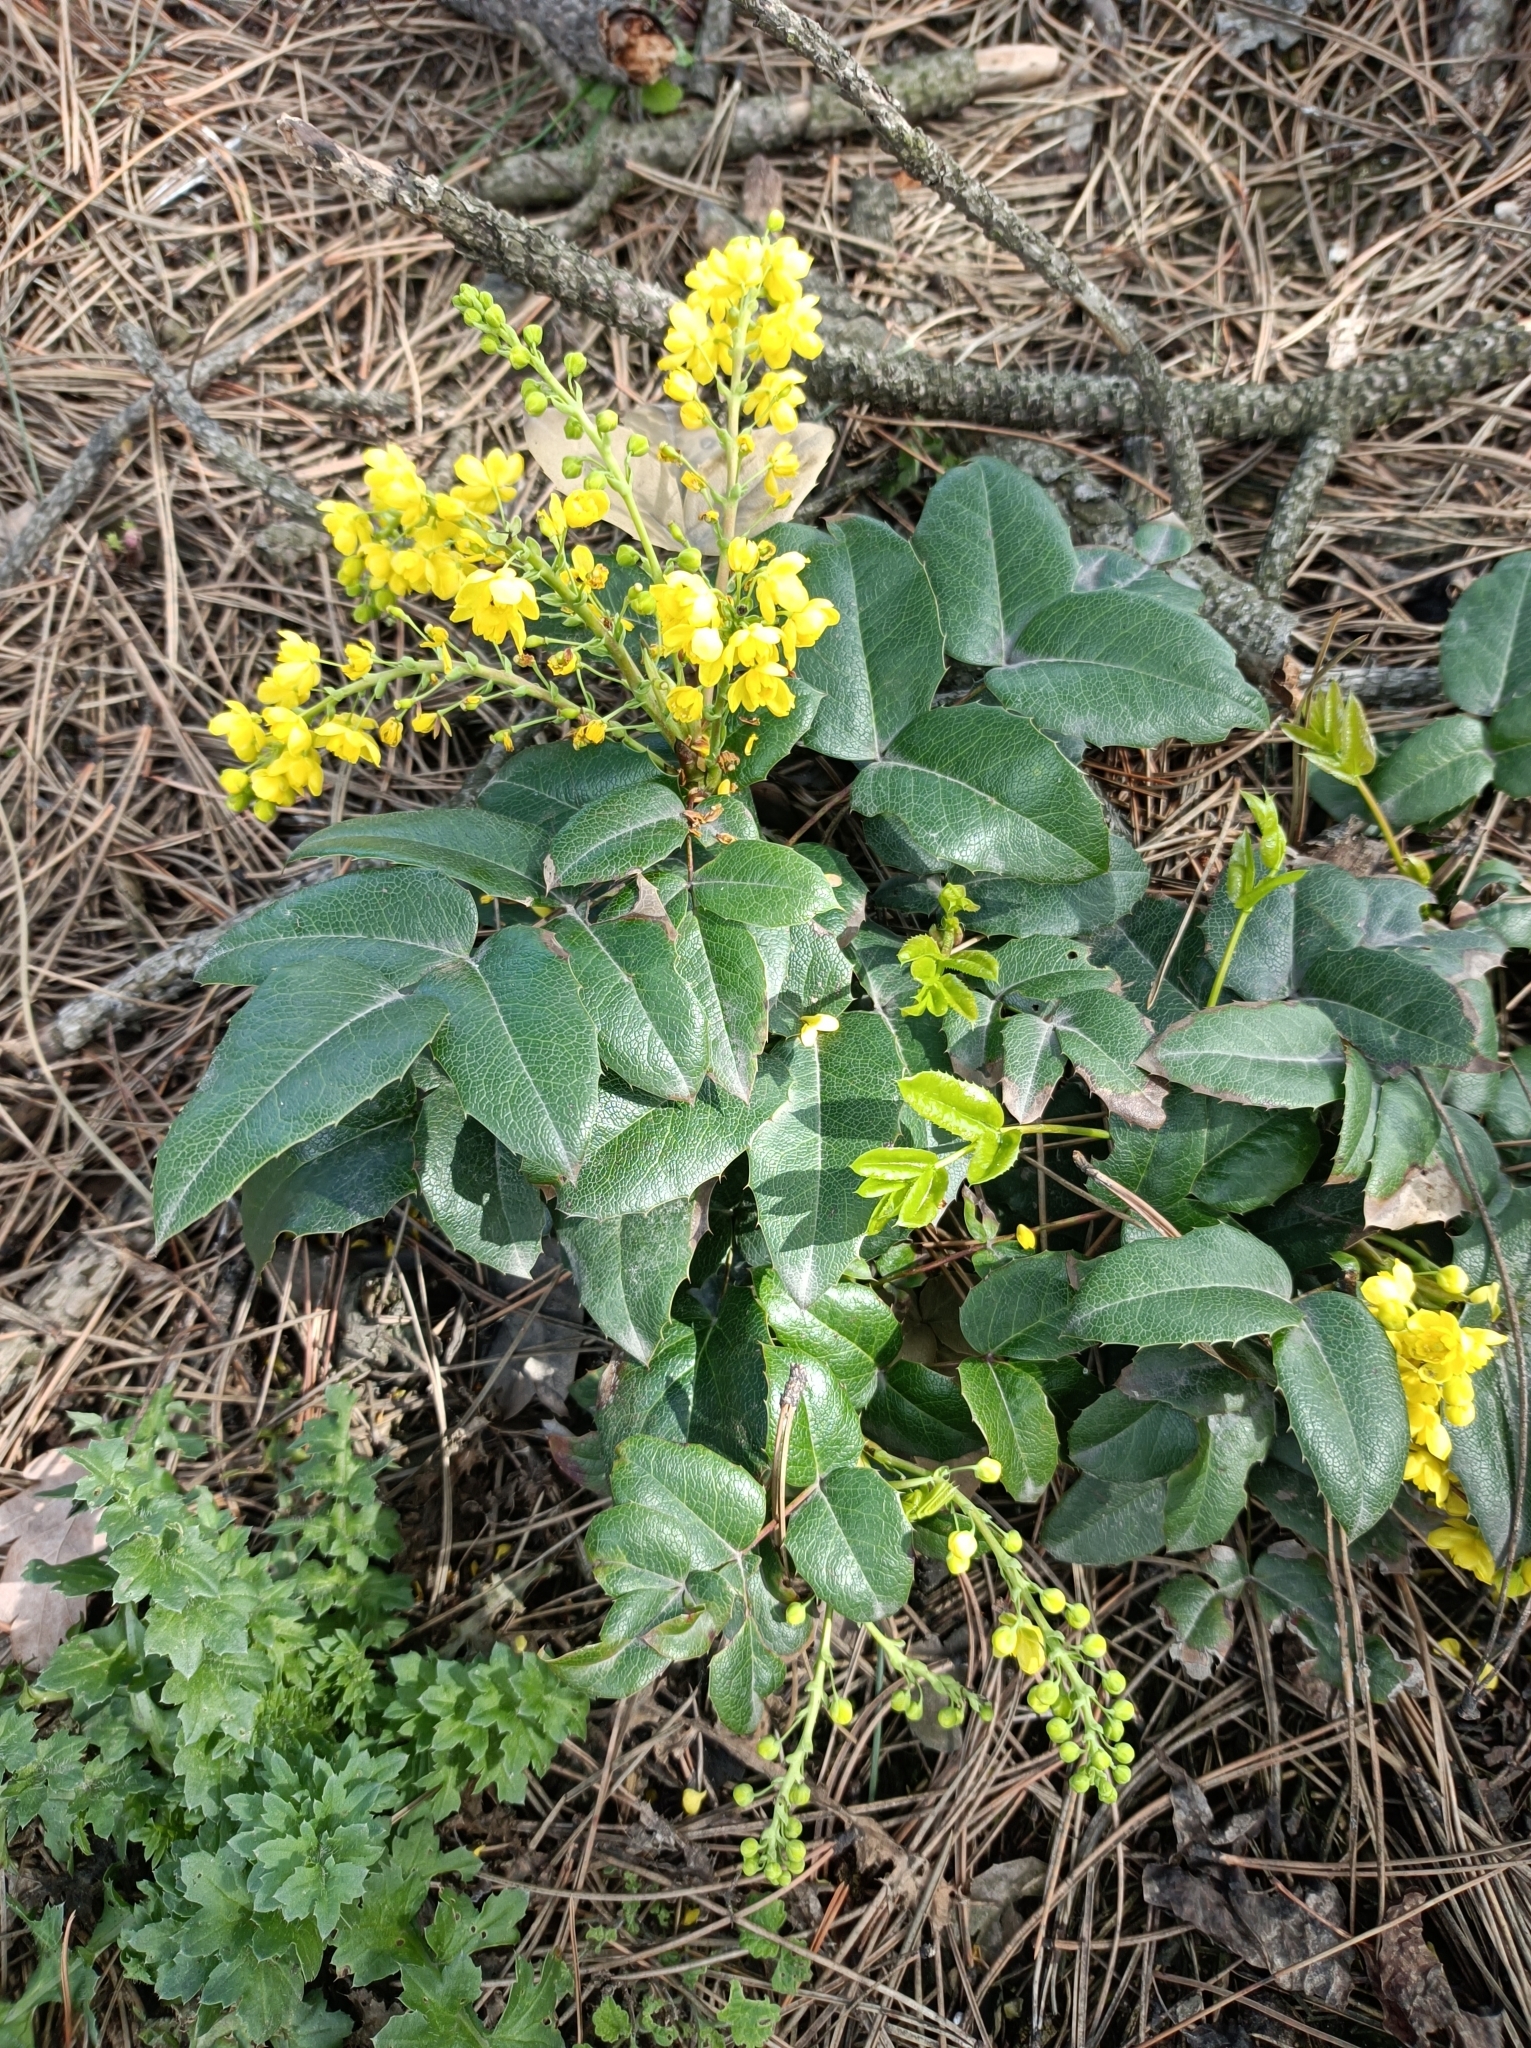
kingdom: Plantae
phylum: Tracheophyta
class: Magnoliopsida
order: Ranunculales
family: Berberidaceae
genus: Mahonia
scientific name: Mahonia aquifolium
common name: Oregon-grape
